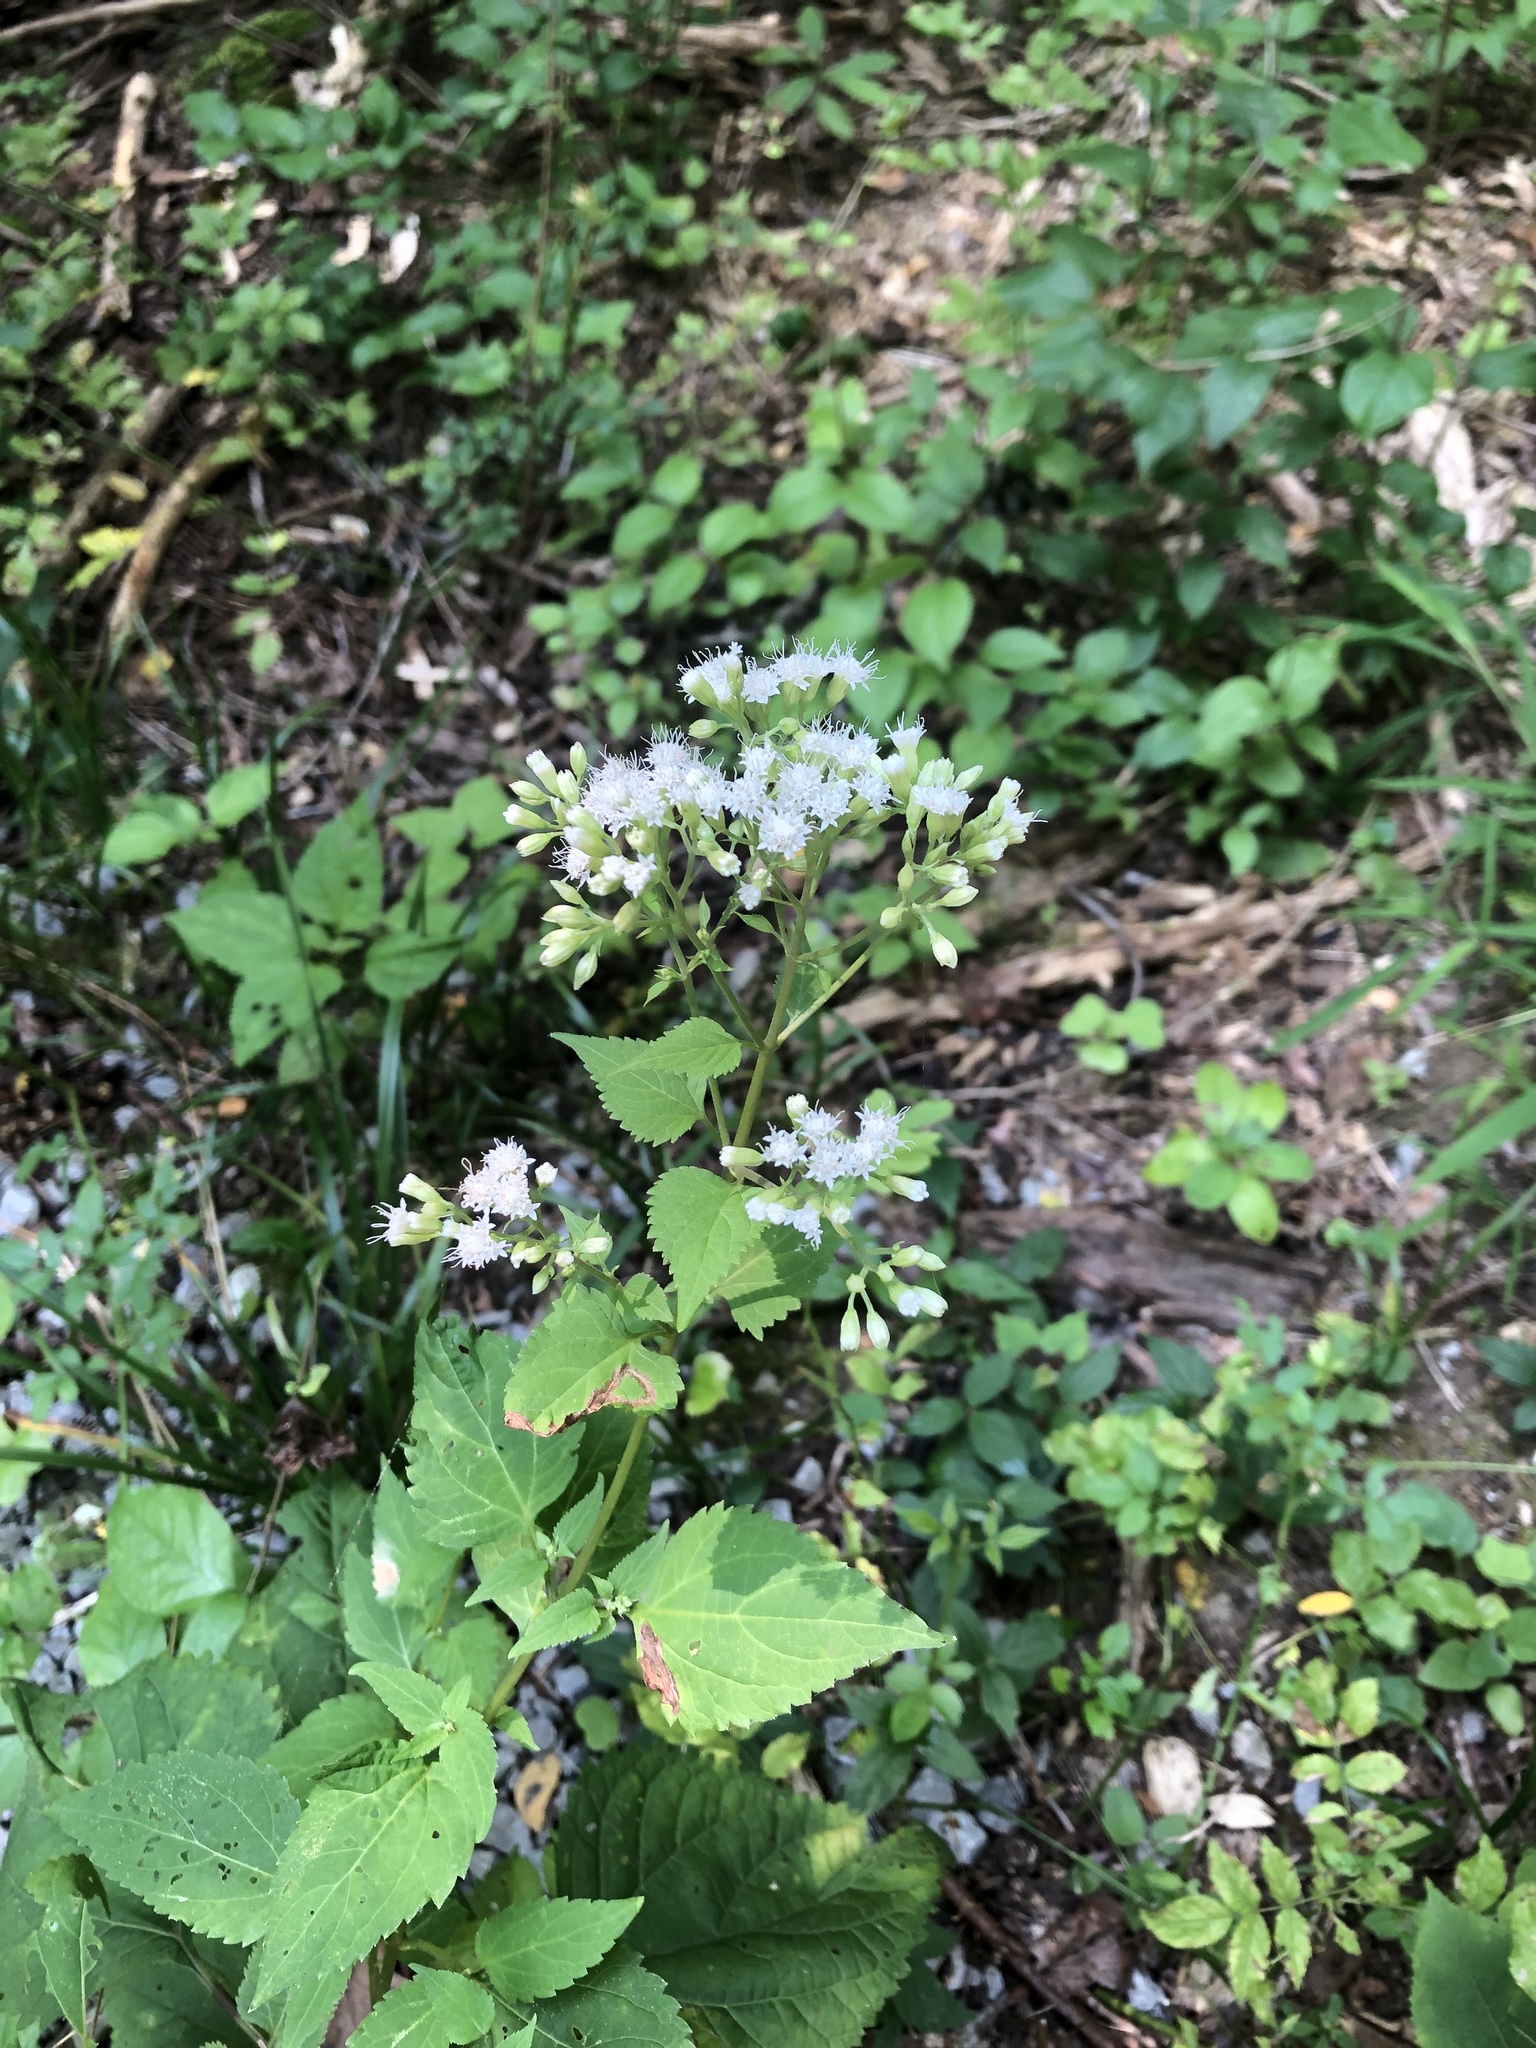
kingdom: Plantae
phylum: Tracheophyta
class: Magnoliopsida
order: Asterales
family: Asteraceae
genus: Ageratina
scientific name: Ageratina altissima
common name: White snakeroot
